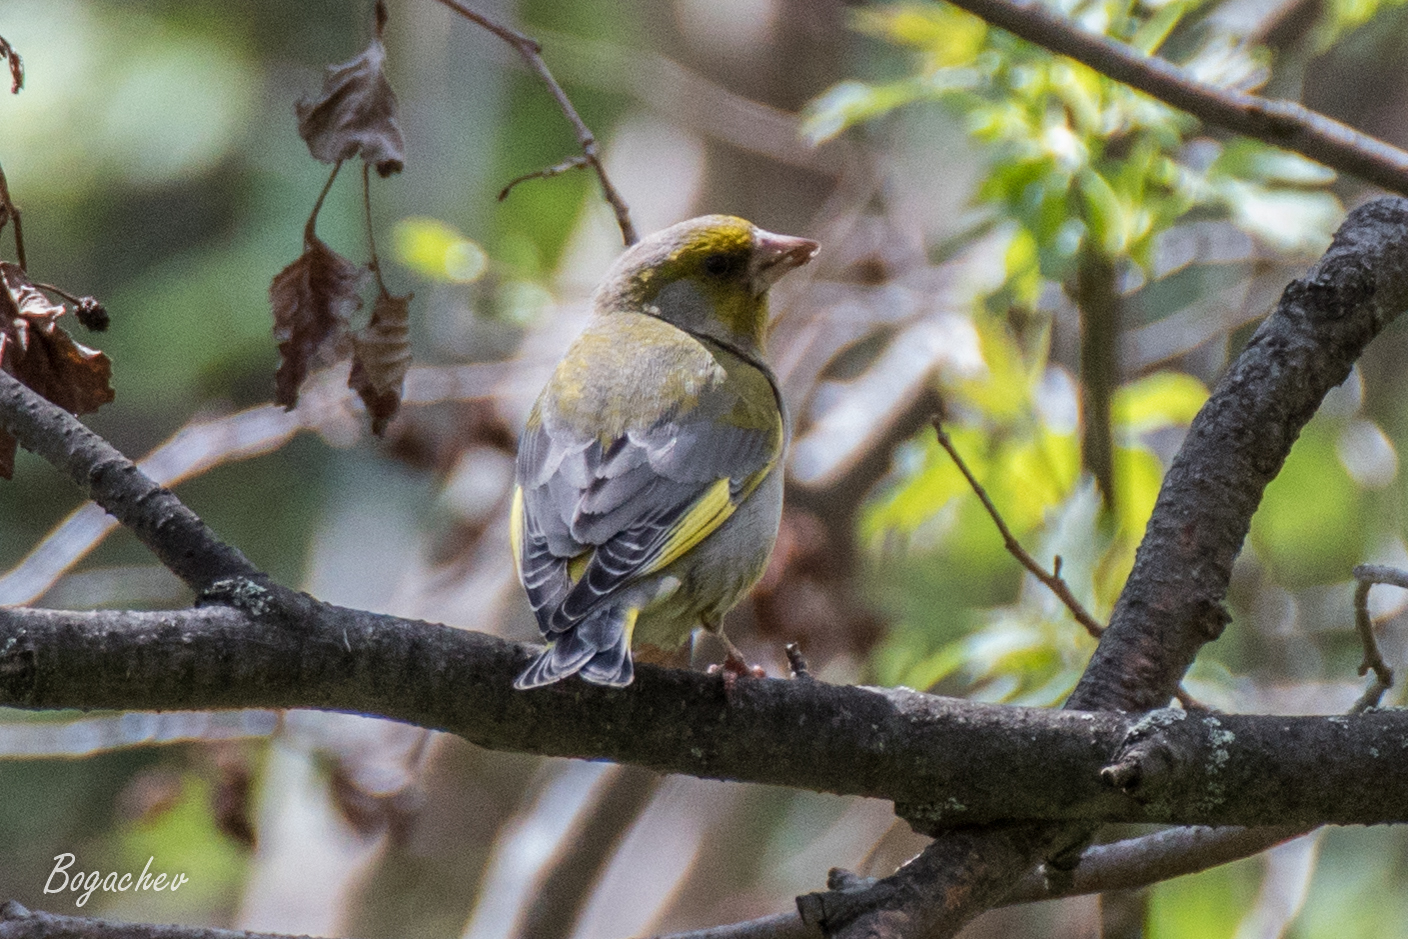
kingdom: Plantae
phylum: Tracheophyta
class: Liliopsida
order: Poales
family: Poaceae
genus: Chloris
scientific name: Chloris chloris
